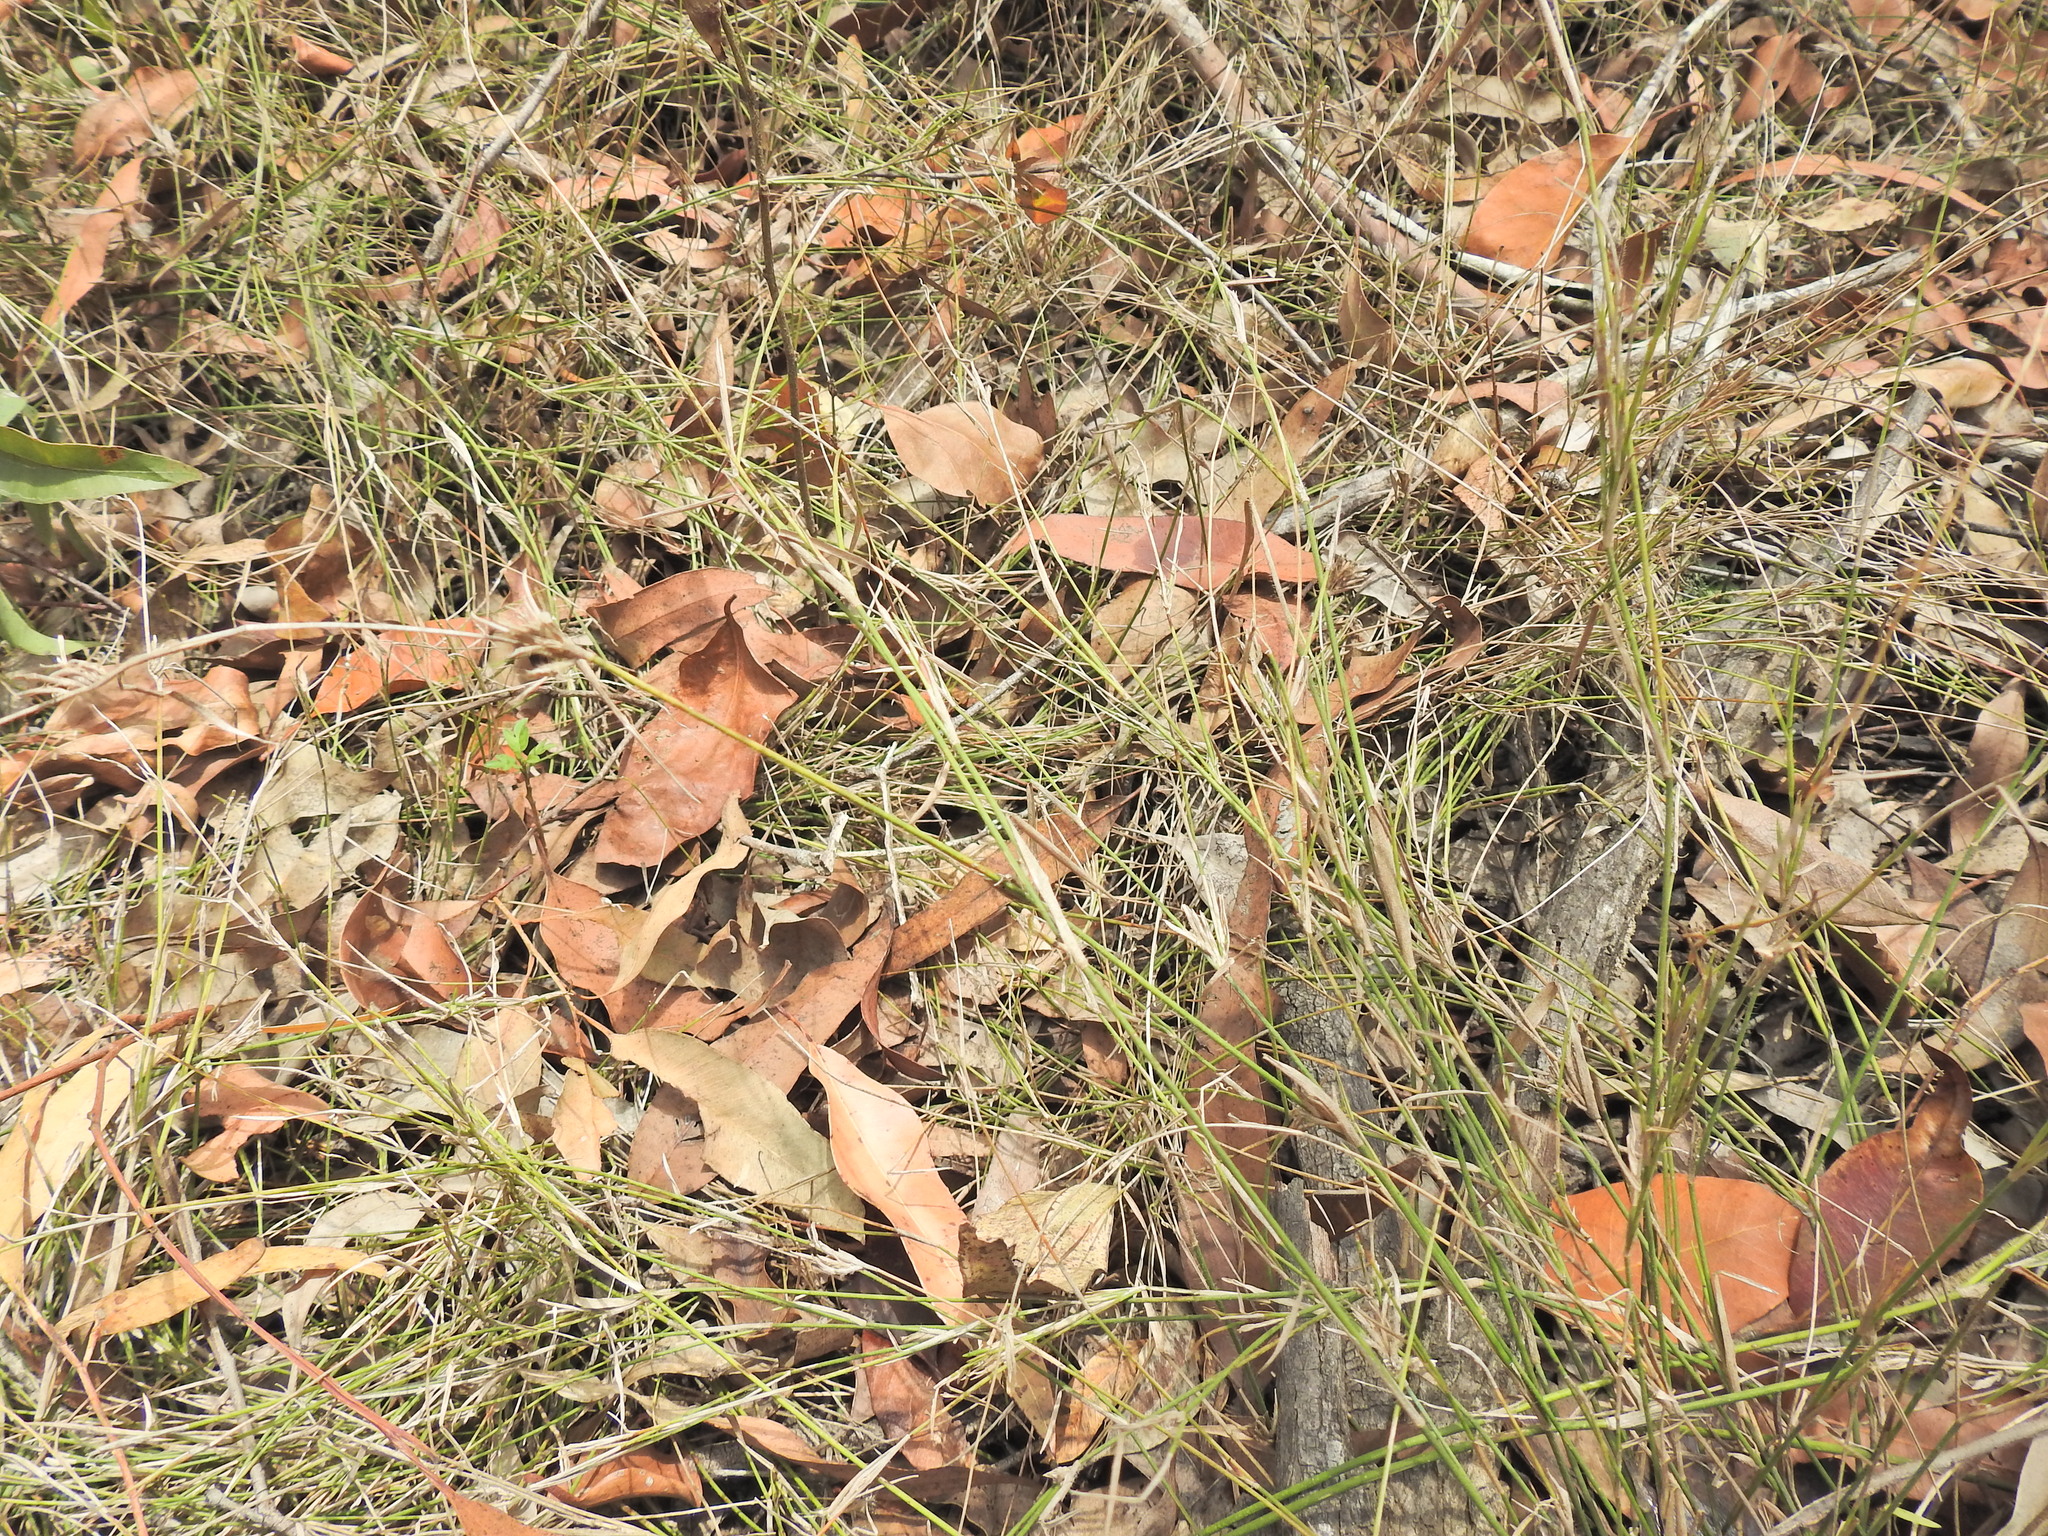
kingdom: Plantae
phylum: Tracheophyta
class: Liliopsida
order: Poales
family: Poaceae
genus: Entolasia
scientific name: Entolasia stricta
